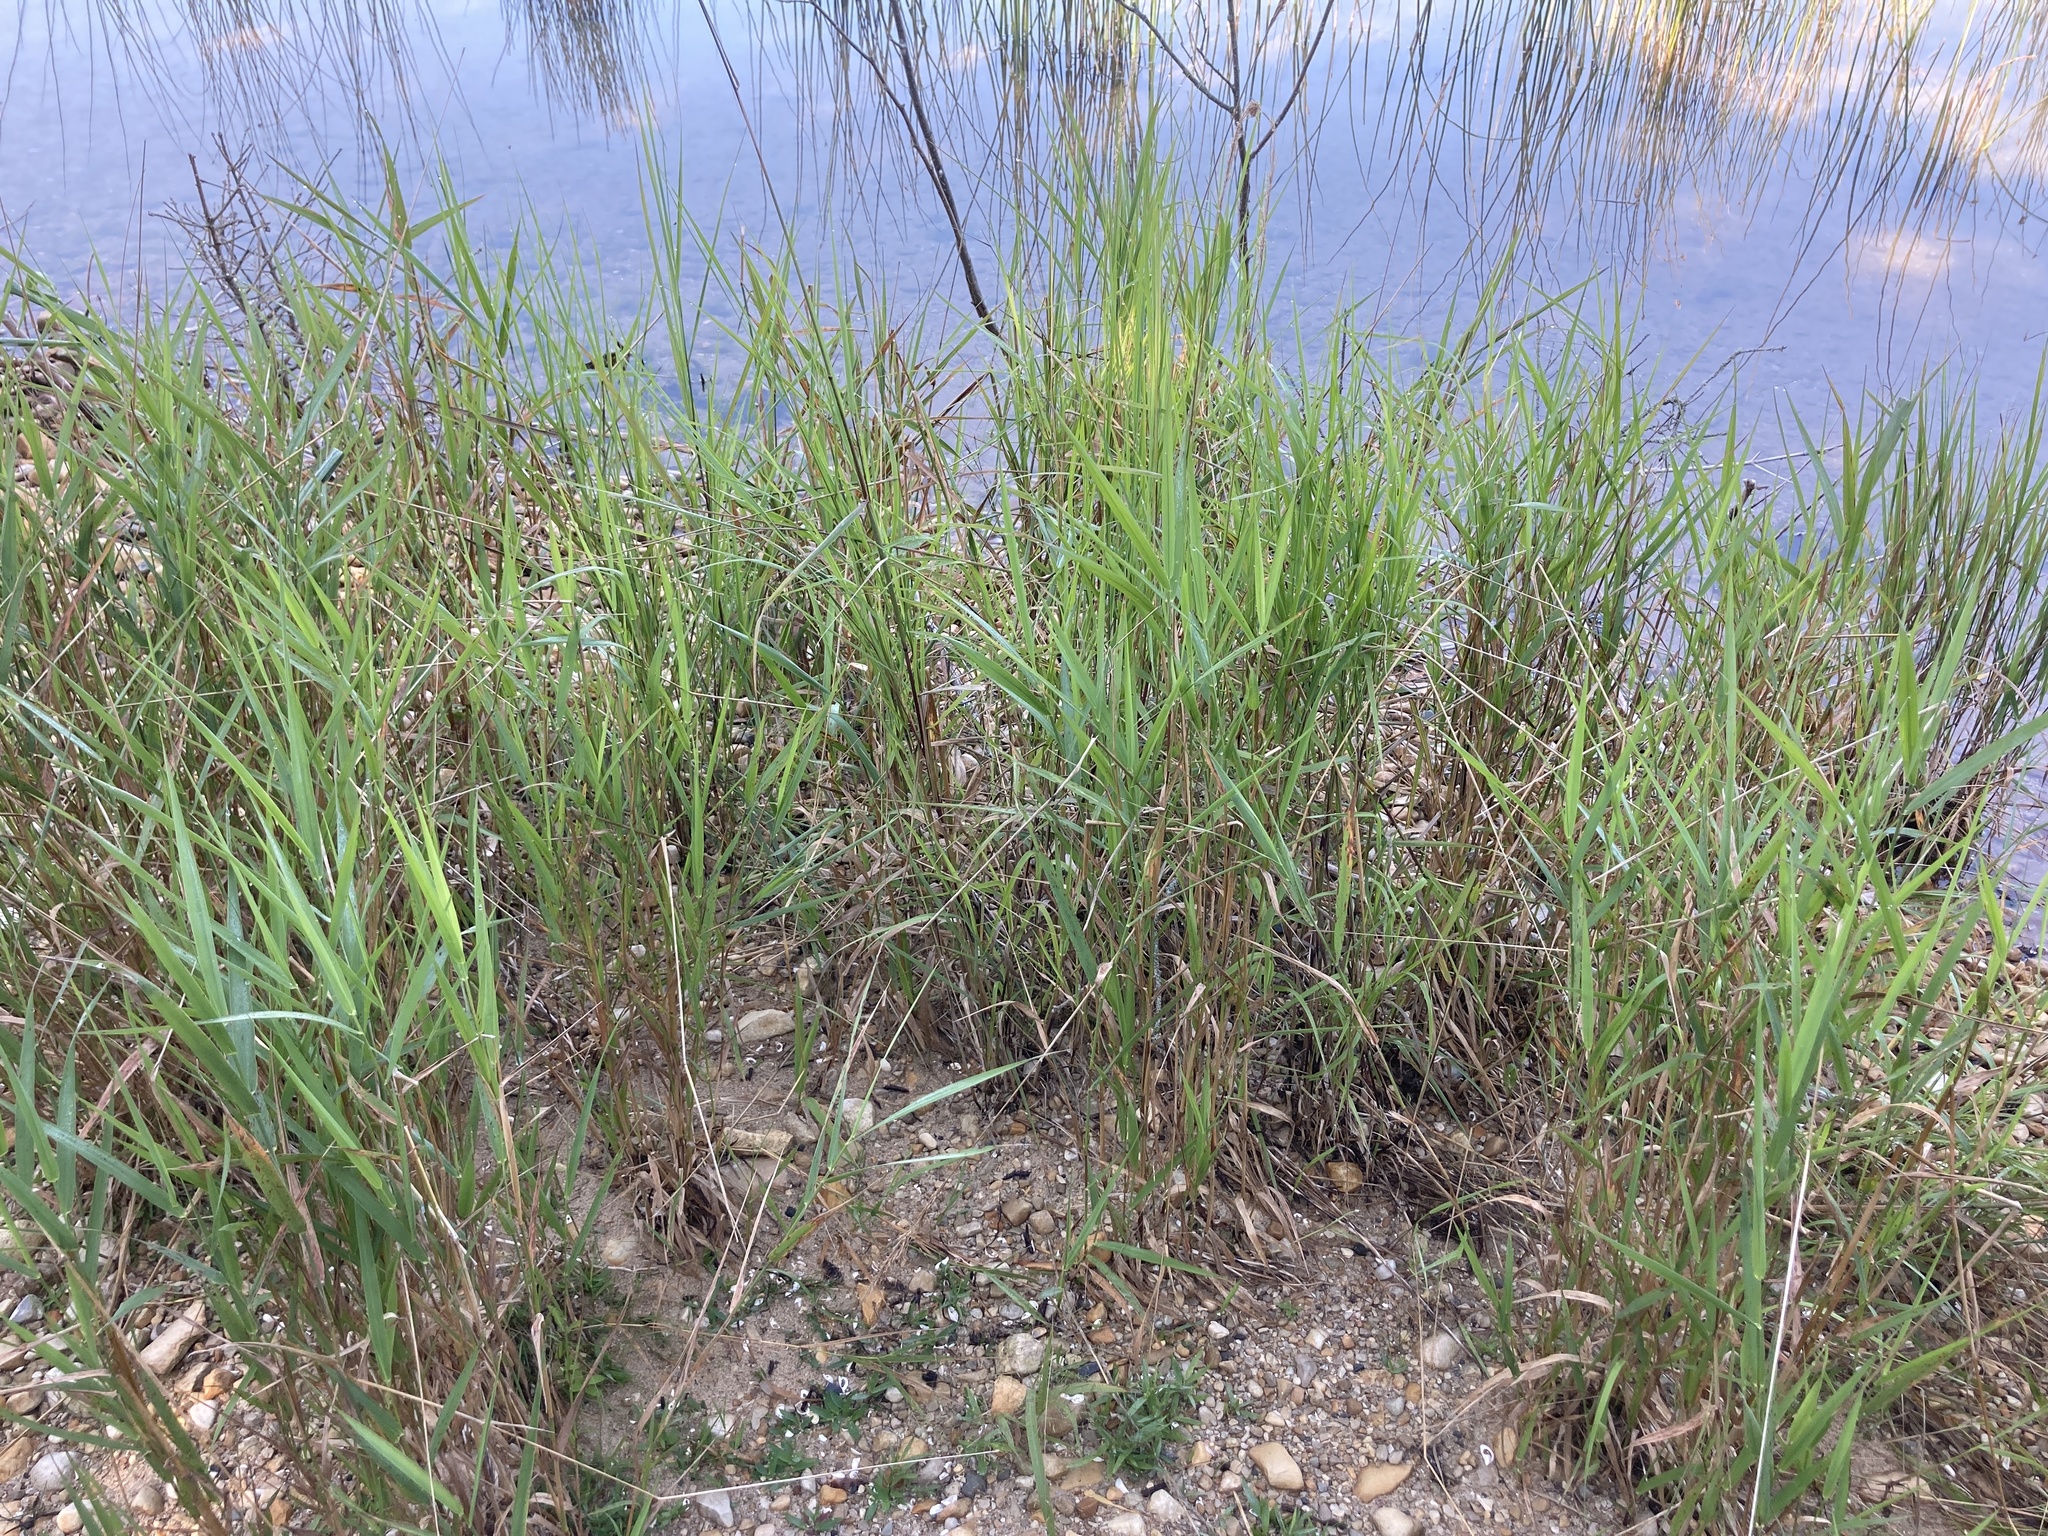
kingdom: Plantae
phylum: Tracheophyta
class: Liliopsida
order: Poales
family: Poaceae
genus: Phalaris
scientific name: Phalaris arundinacea
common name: Reed canary-grass
